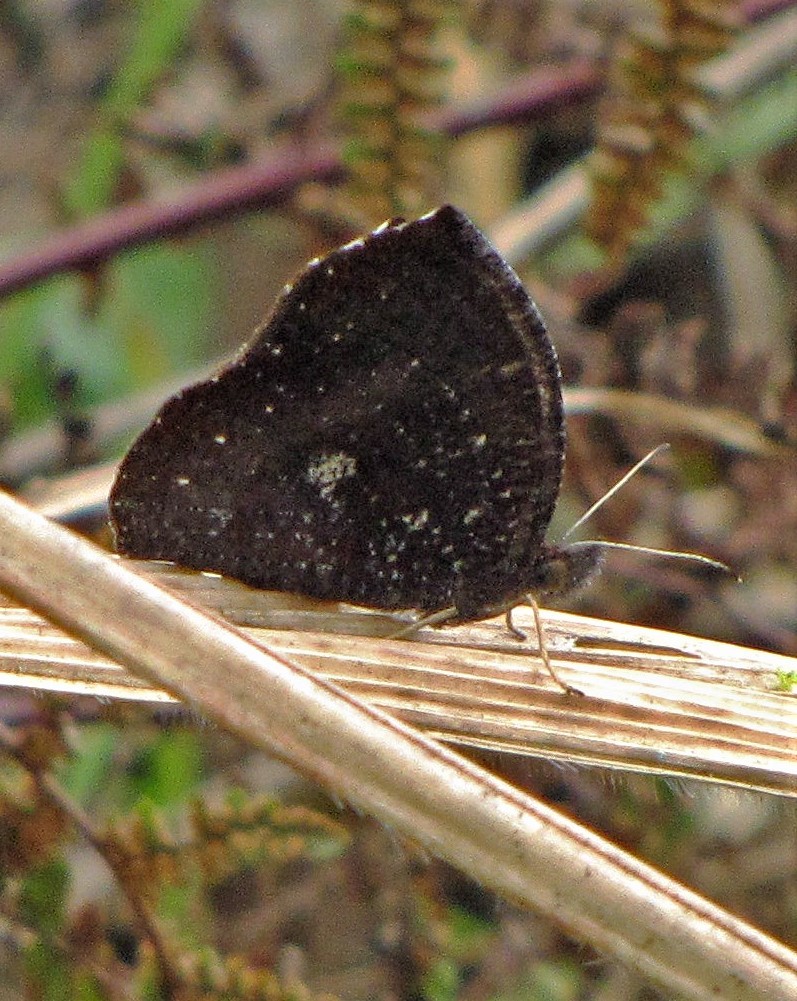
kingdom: Animalia
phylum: Arthropoda
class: Insecta
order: Lepidoptera
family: Nymphalidae
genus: Godartiana
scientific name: Godartiana muscosa
